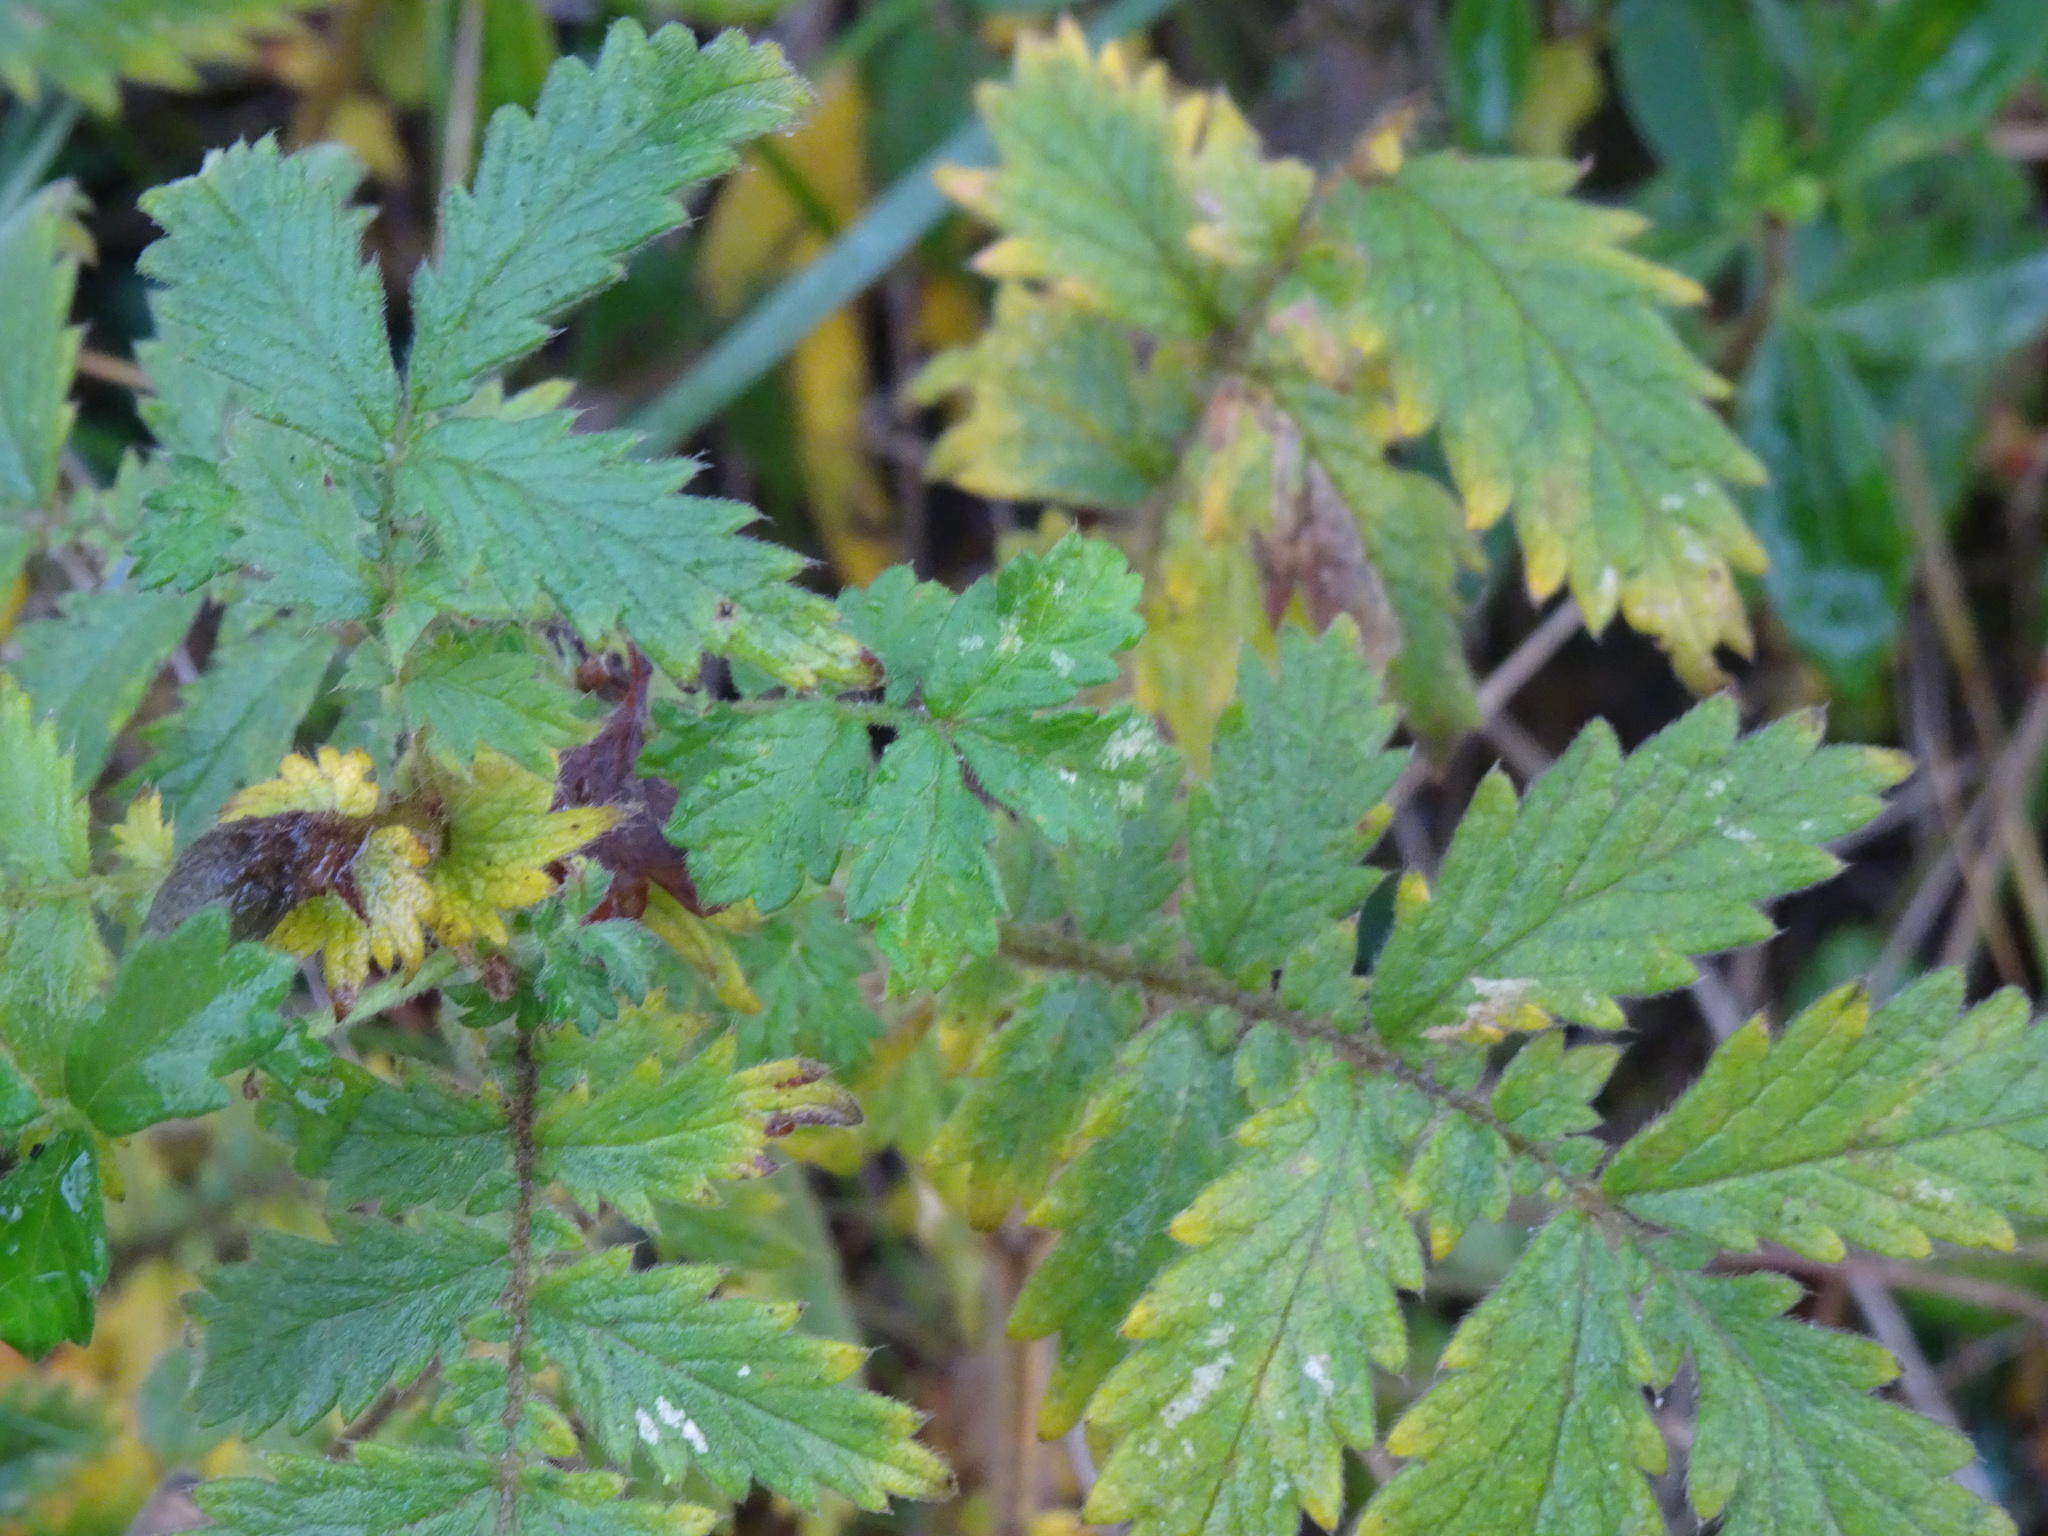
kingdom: Plantae
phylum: Tracheophyta
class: Magnoliopsida
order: Rosales
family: Rosaceae
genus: Agrimonia
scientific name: Agrimonia eupatoria
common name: Agrimony
